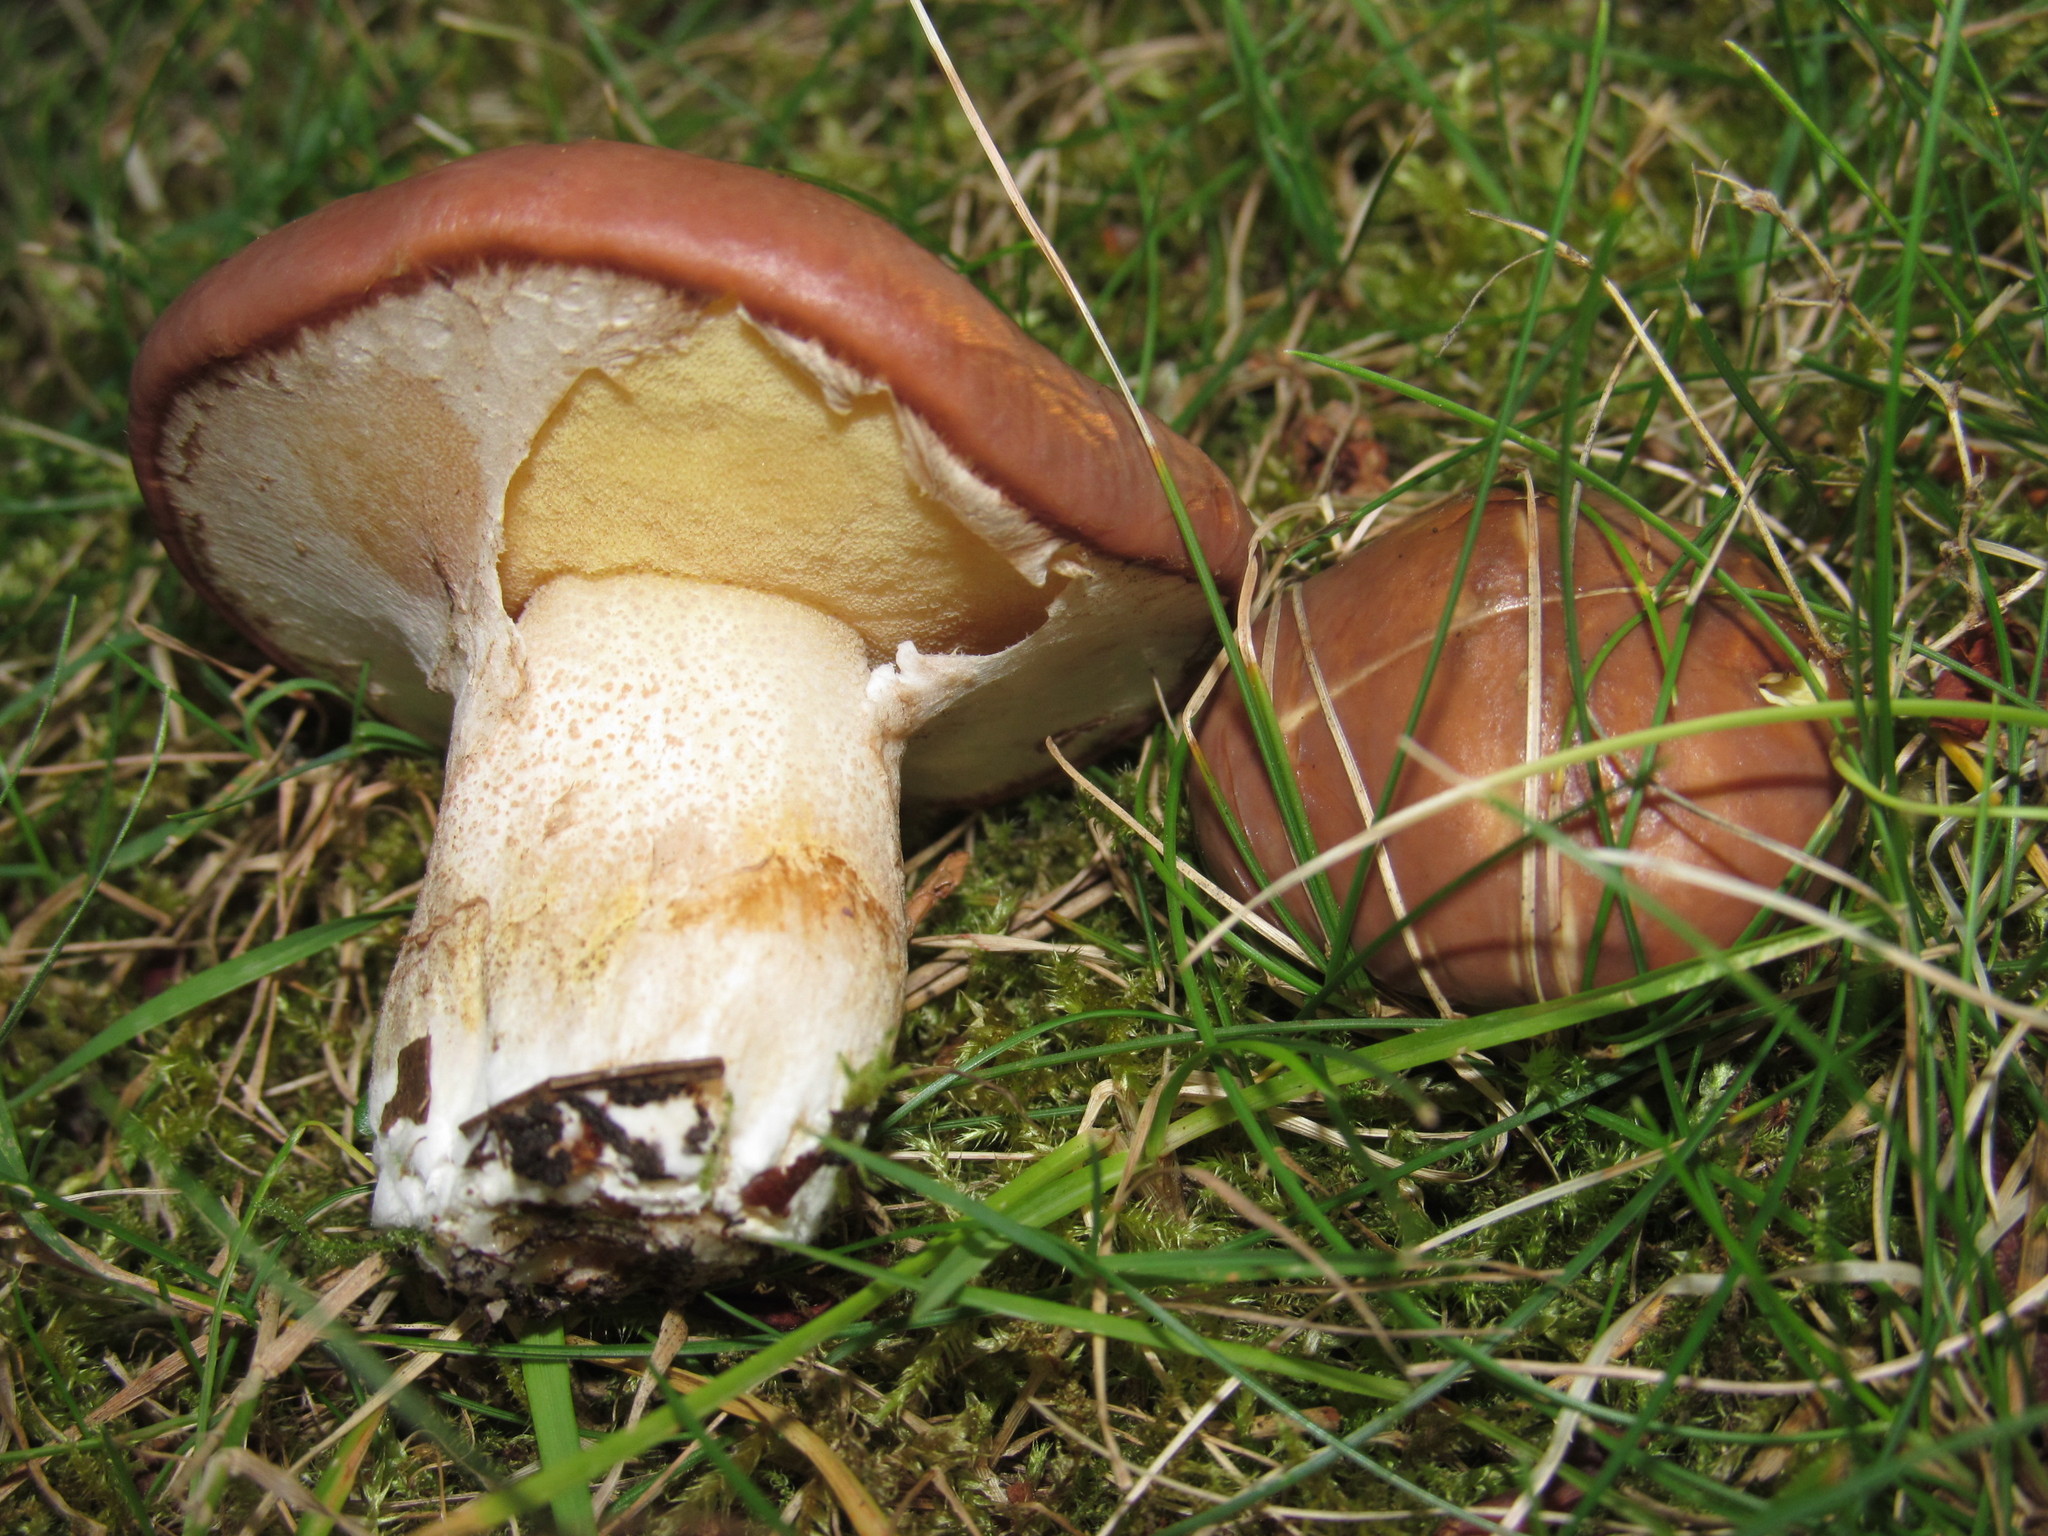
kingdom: Fungi
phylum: Basidiomycota
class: Agaricomycetes
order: Boletales
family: Suillaceae
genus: Suillus
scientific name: Suillus luteus
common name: Slippery jack
